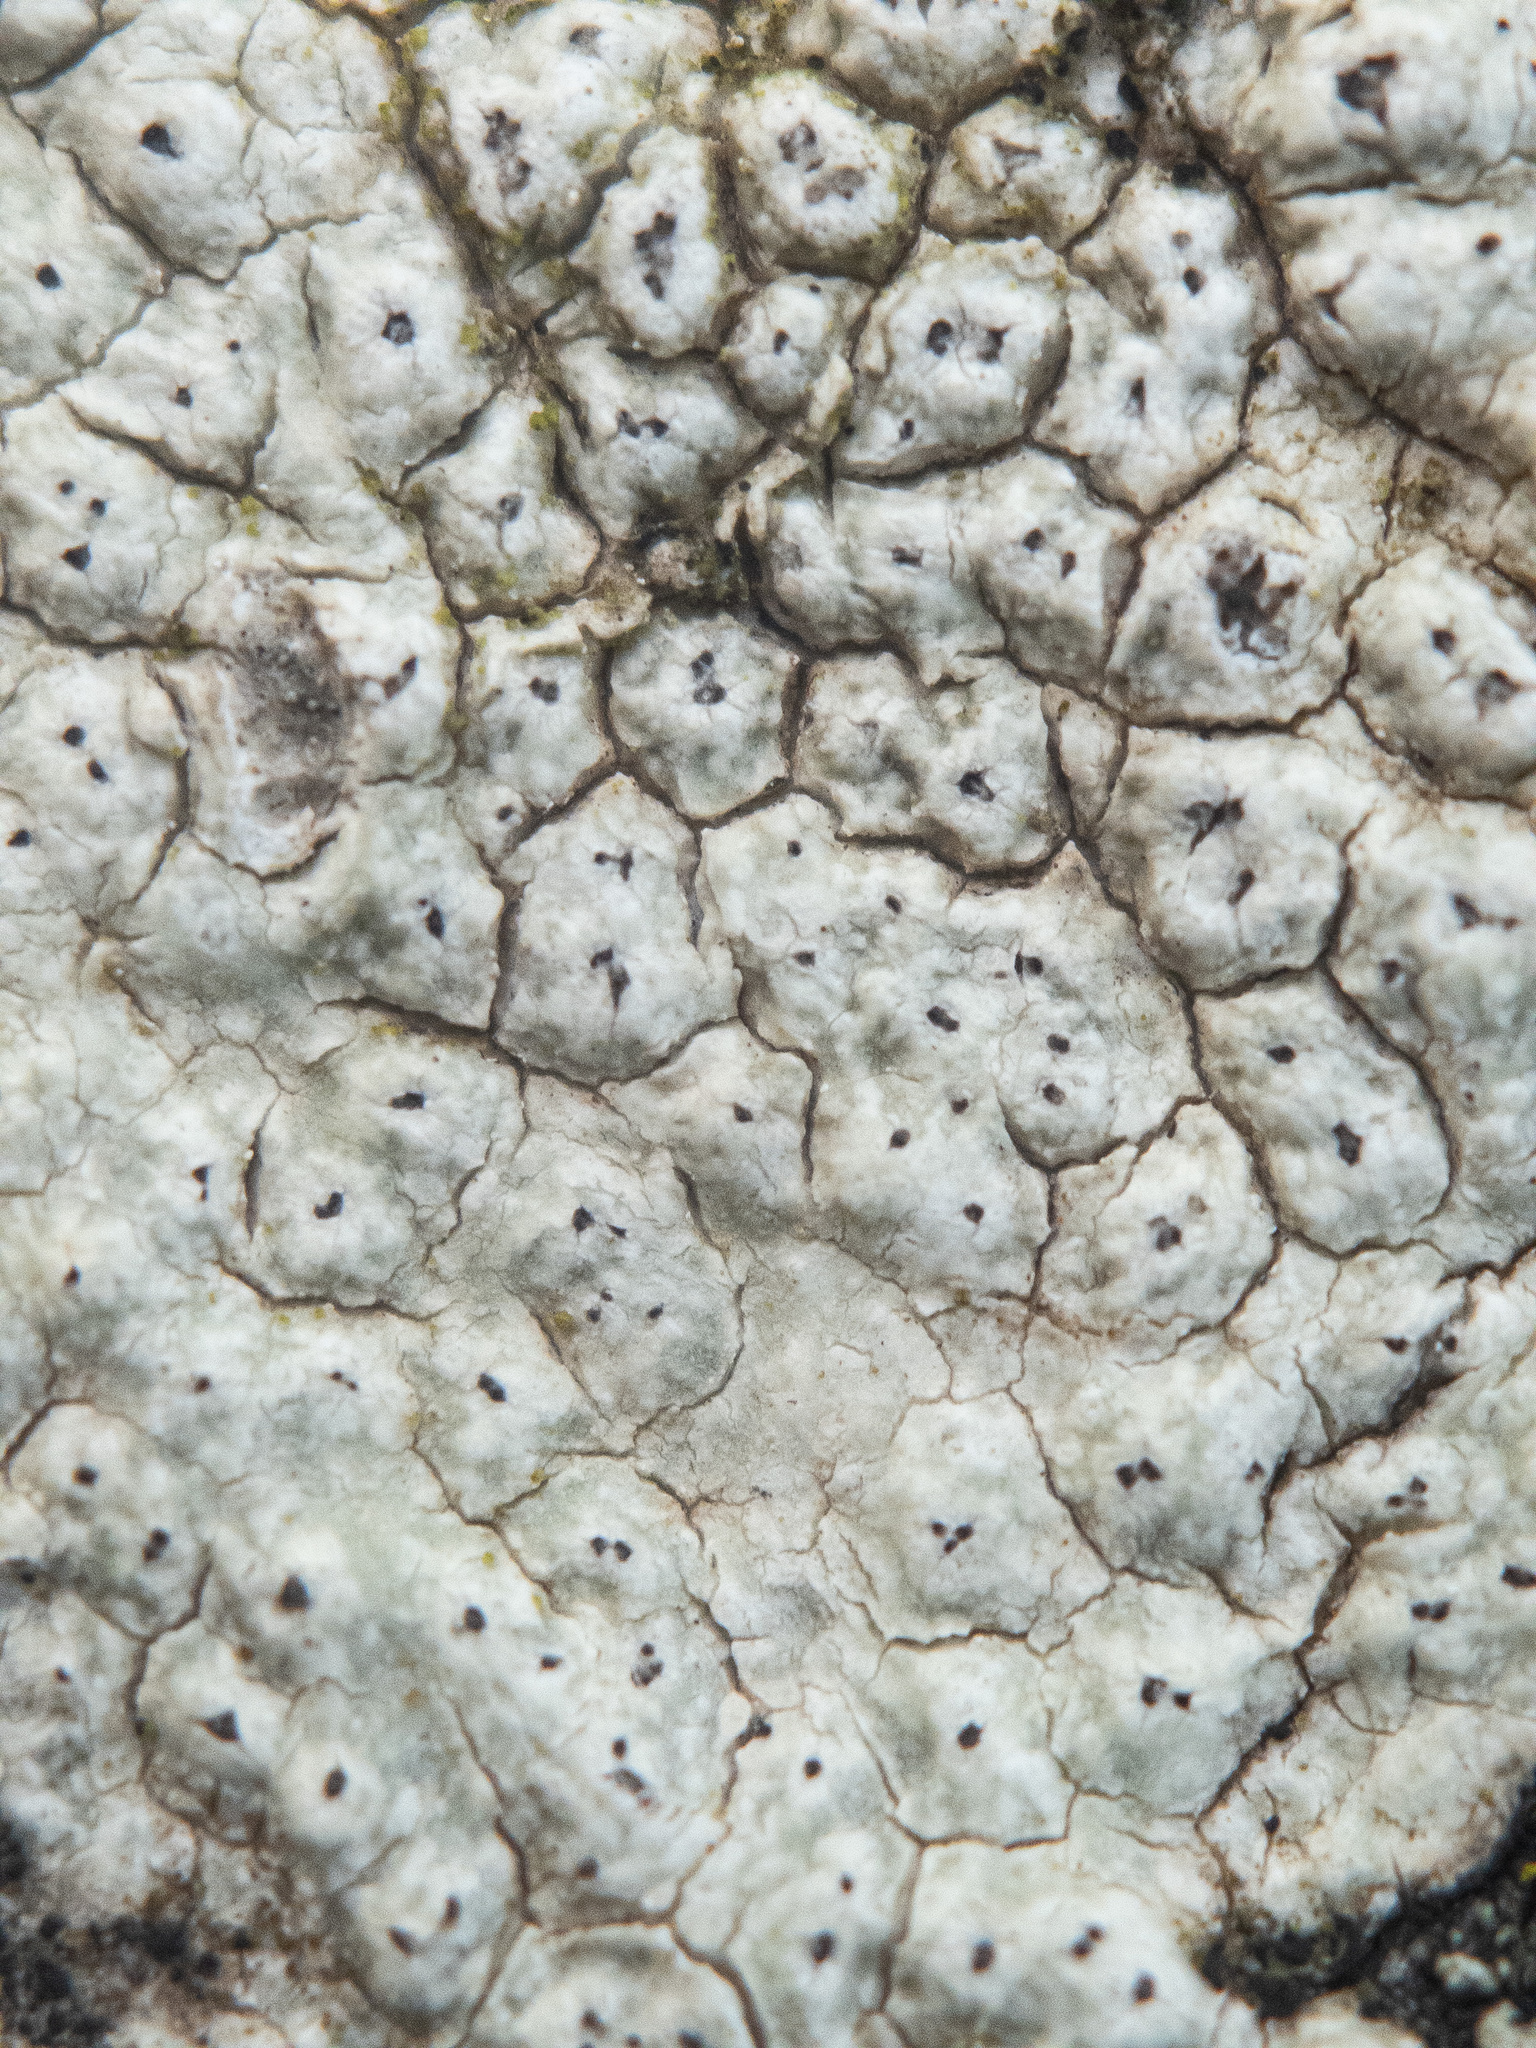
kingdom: Fungi
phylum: Ascomycota
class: Lecanoromycetes
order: Pertusariales
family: Pertusariaceae
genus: Pertusaria
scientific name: Pertusaria neoscotica
